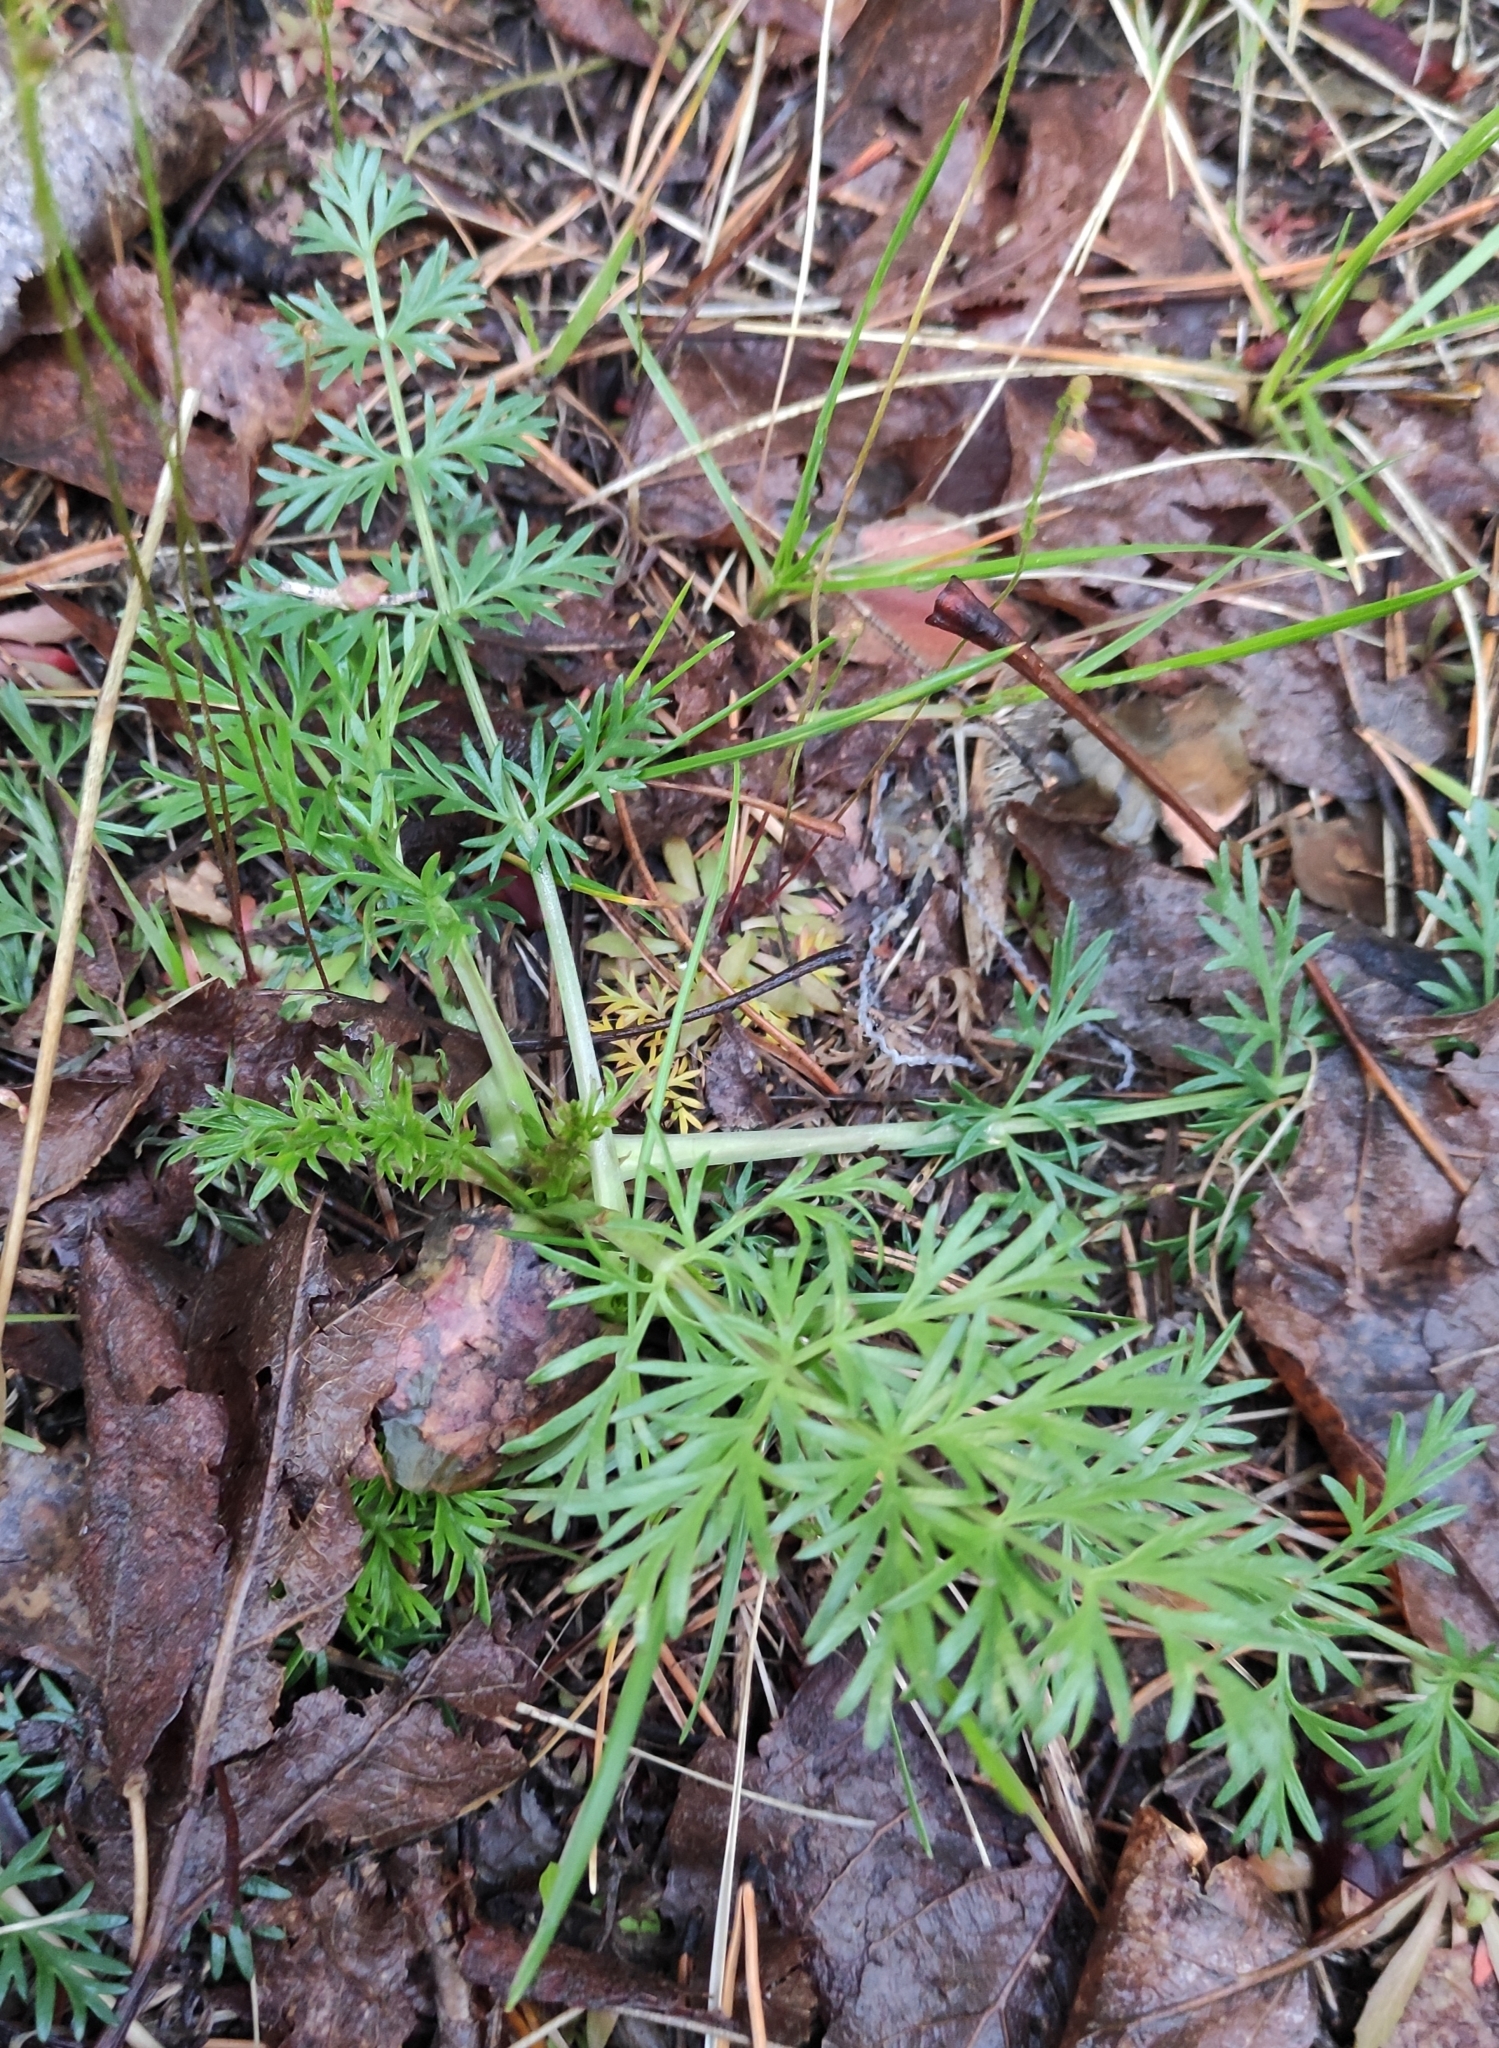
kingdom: Plantae
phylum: Tracheophyta
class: Magnoliopsida
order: Apiales
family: Apiaceae
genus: Carum
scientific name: Carum carvi
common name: Caraway
